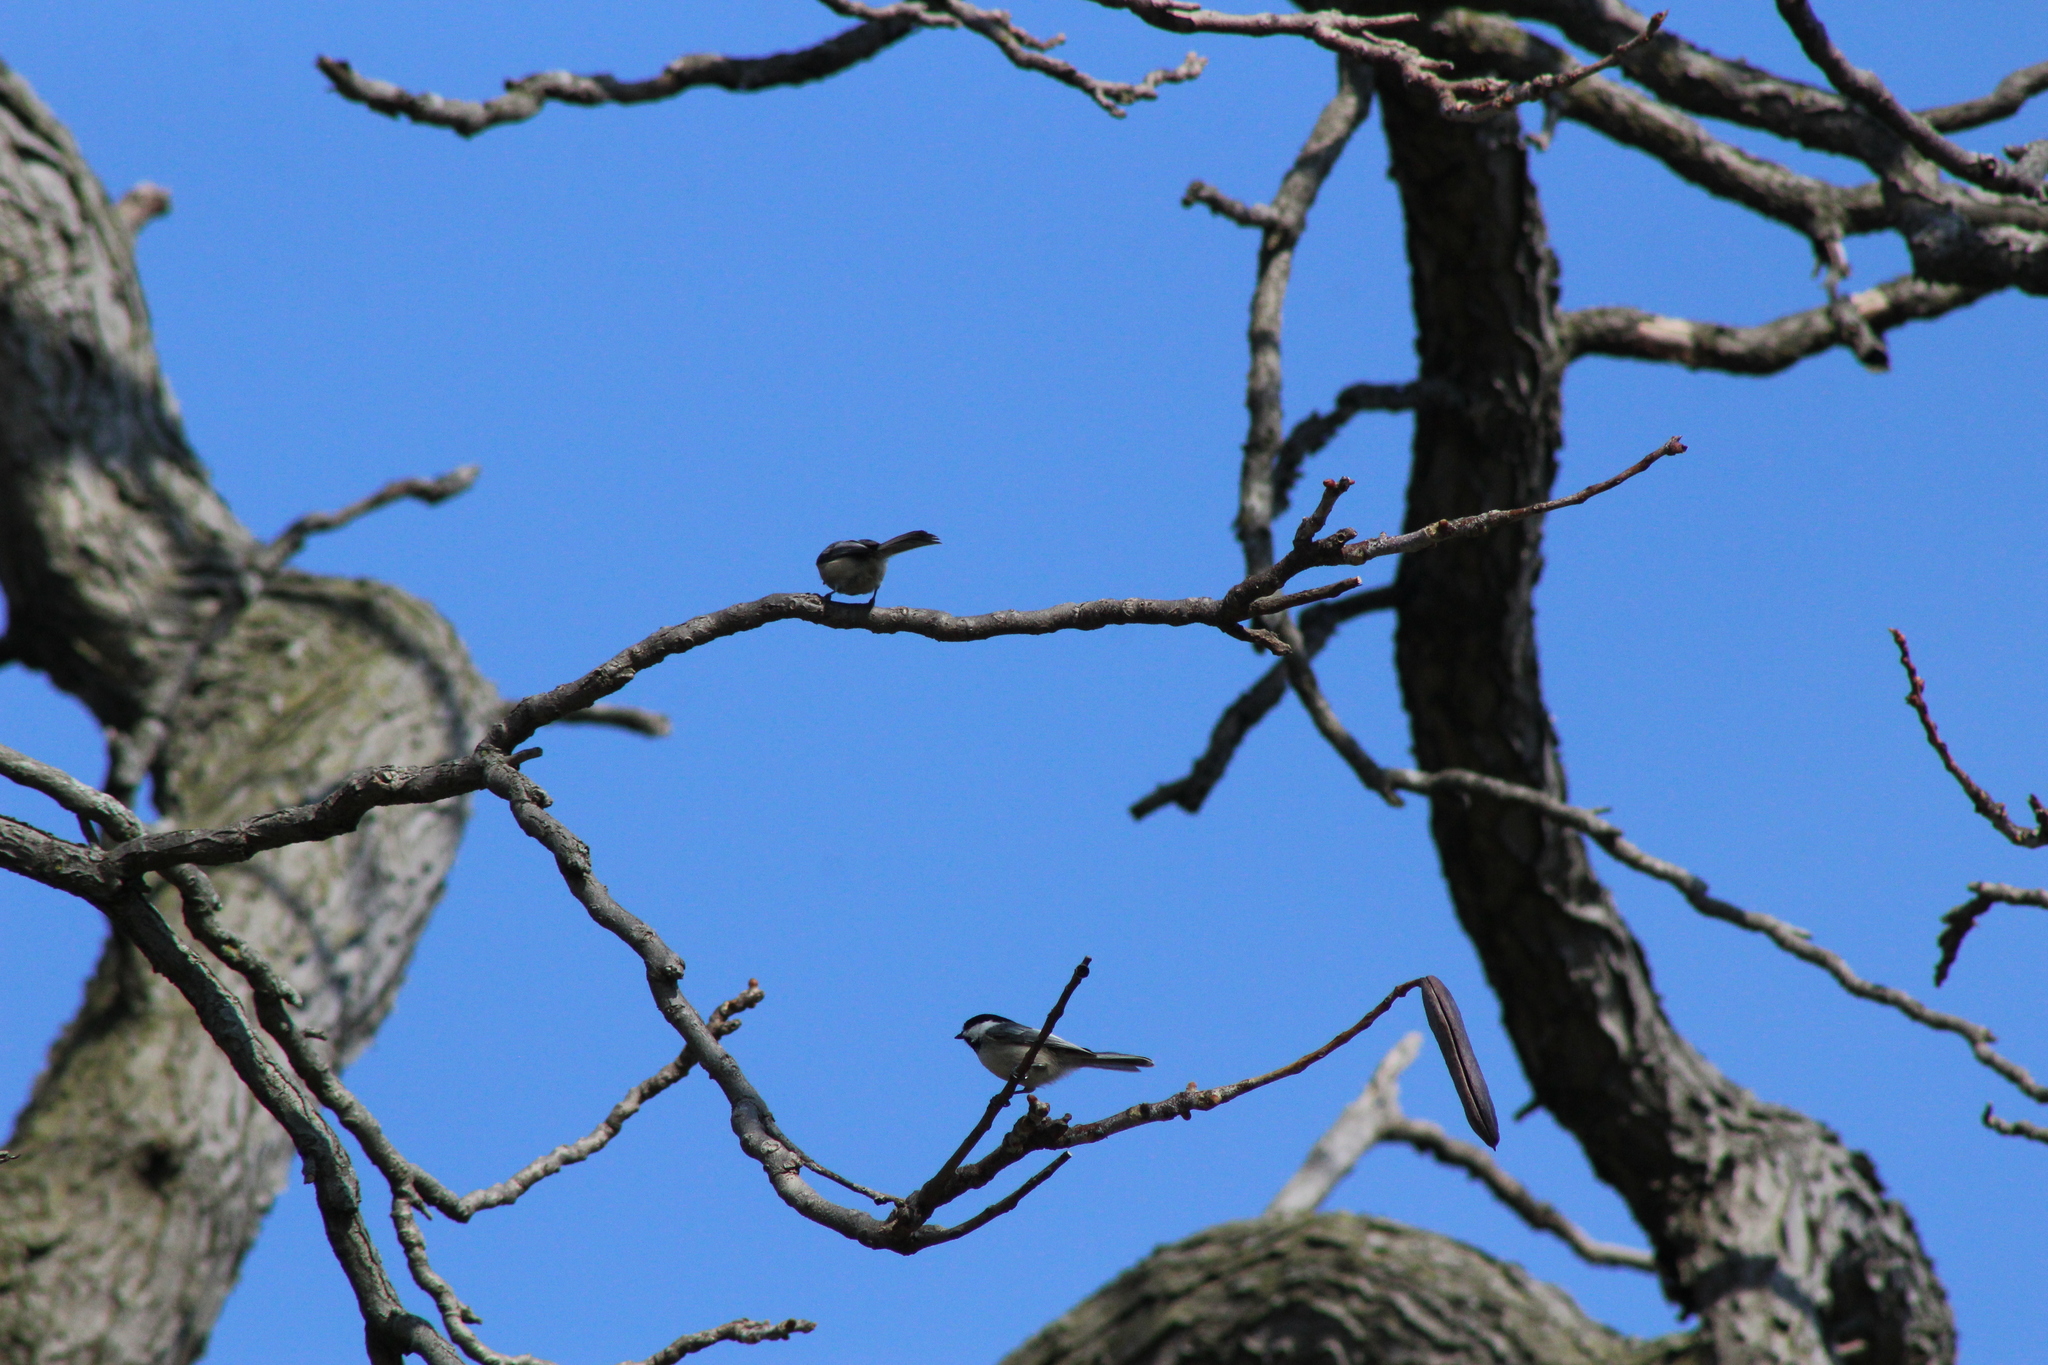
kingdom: Animalia
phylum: Chordata
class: Aves
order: Passeriformes
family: Paridae
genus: Poecile
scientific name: Poecile atricapillus
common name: Black-capped chickadee
